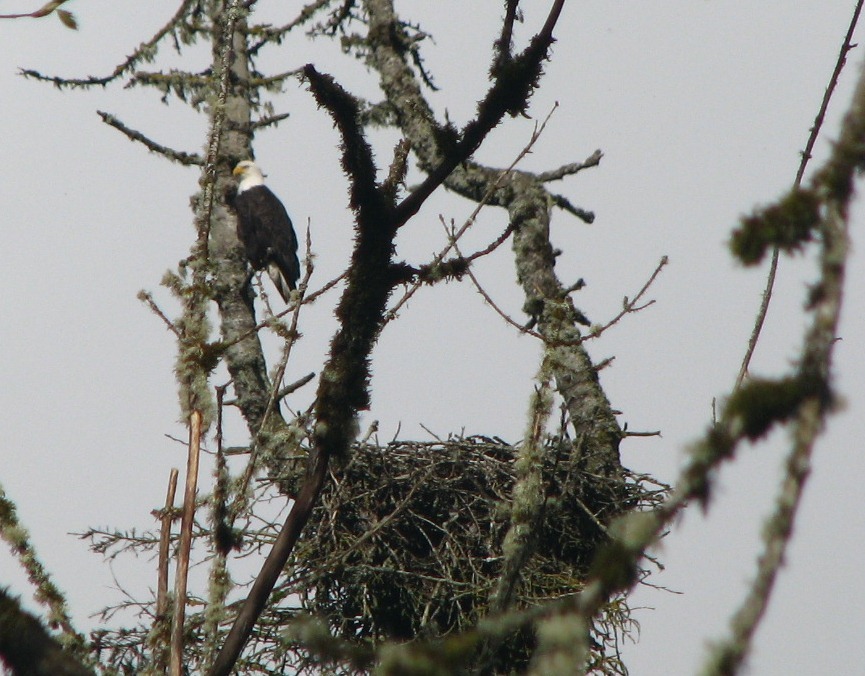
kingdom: Animalia
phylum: Chordata
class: Aves
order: Accipitriformes
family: Accipitridae
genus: Haliaeetus
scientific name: Haliaeetus leucocephalus
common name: Bald eagle
